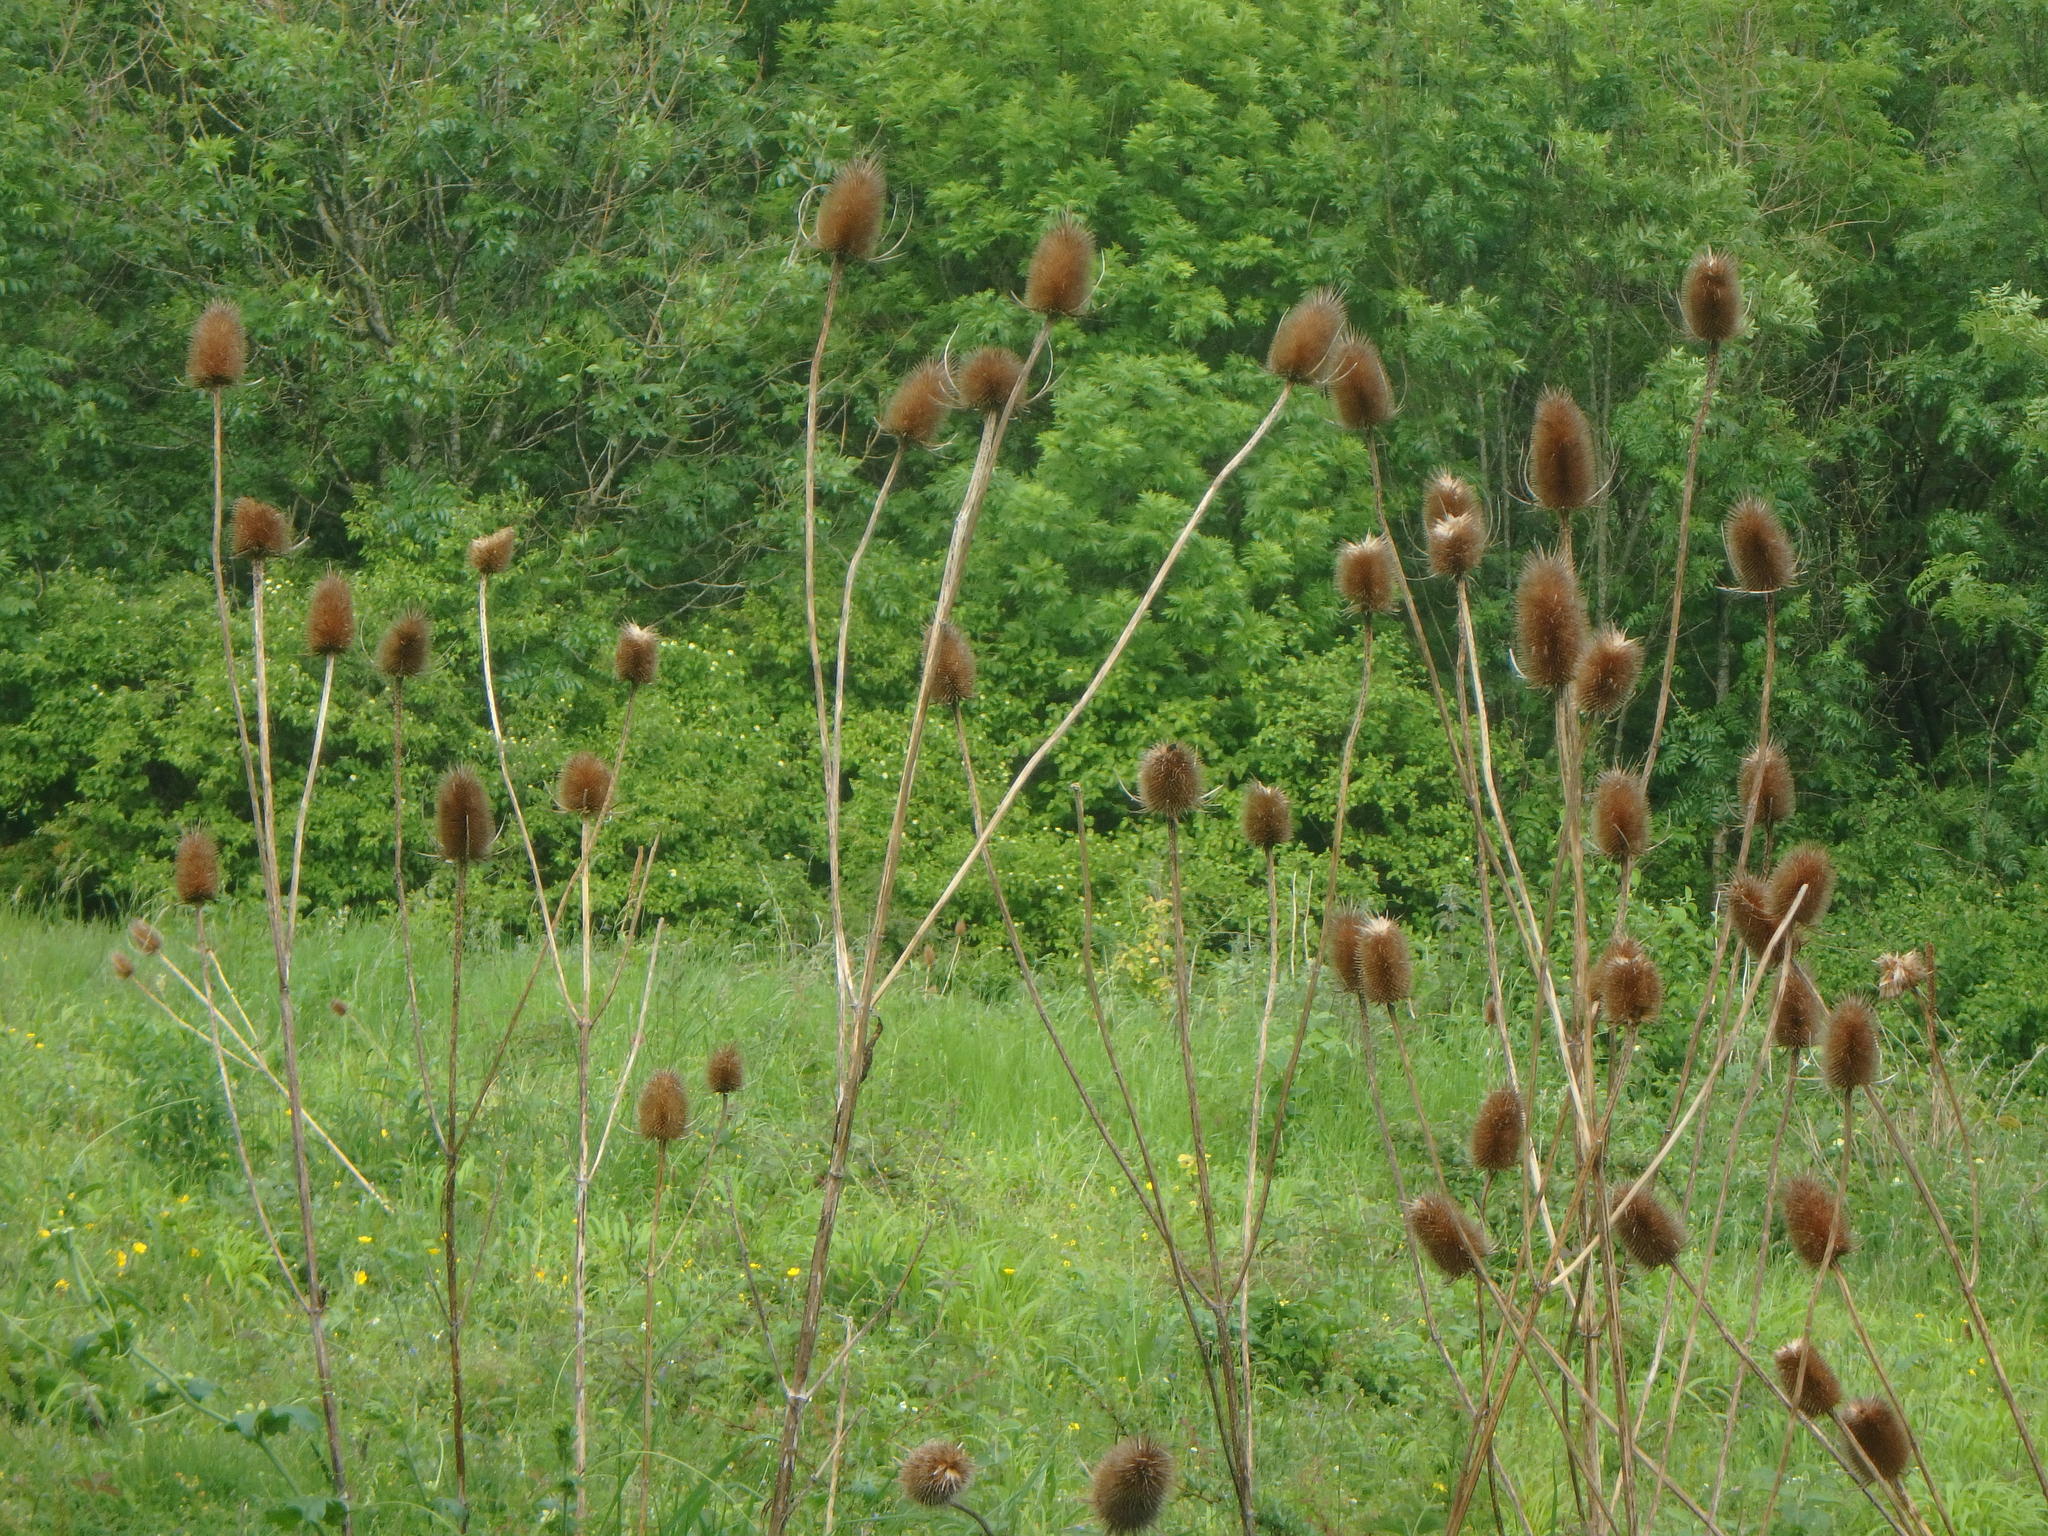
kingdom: Plantae
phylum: Tracheophyta
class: Magnoliopsida
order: Dipsacales
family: Caprifoliaceae
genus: Dipsacus
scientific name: Dipsacus fullonum
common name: Teasel
